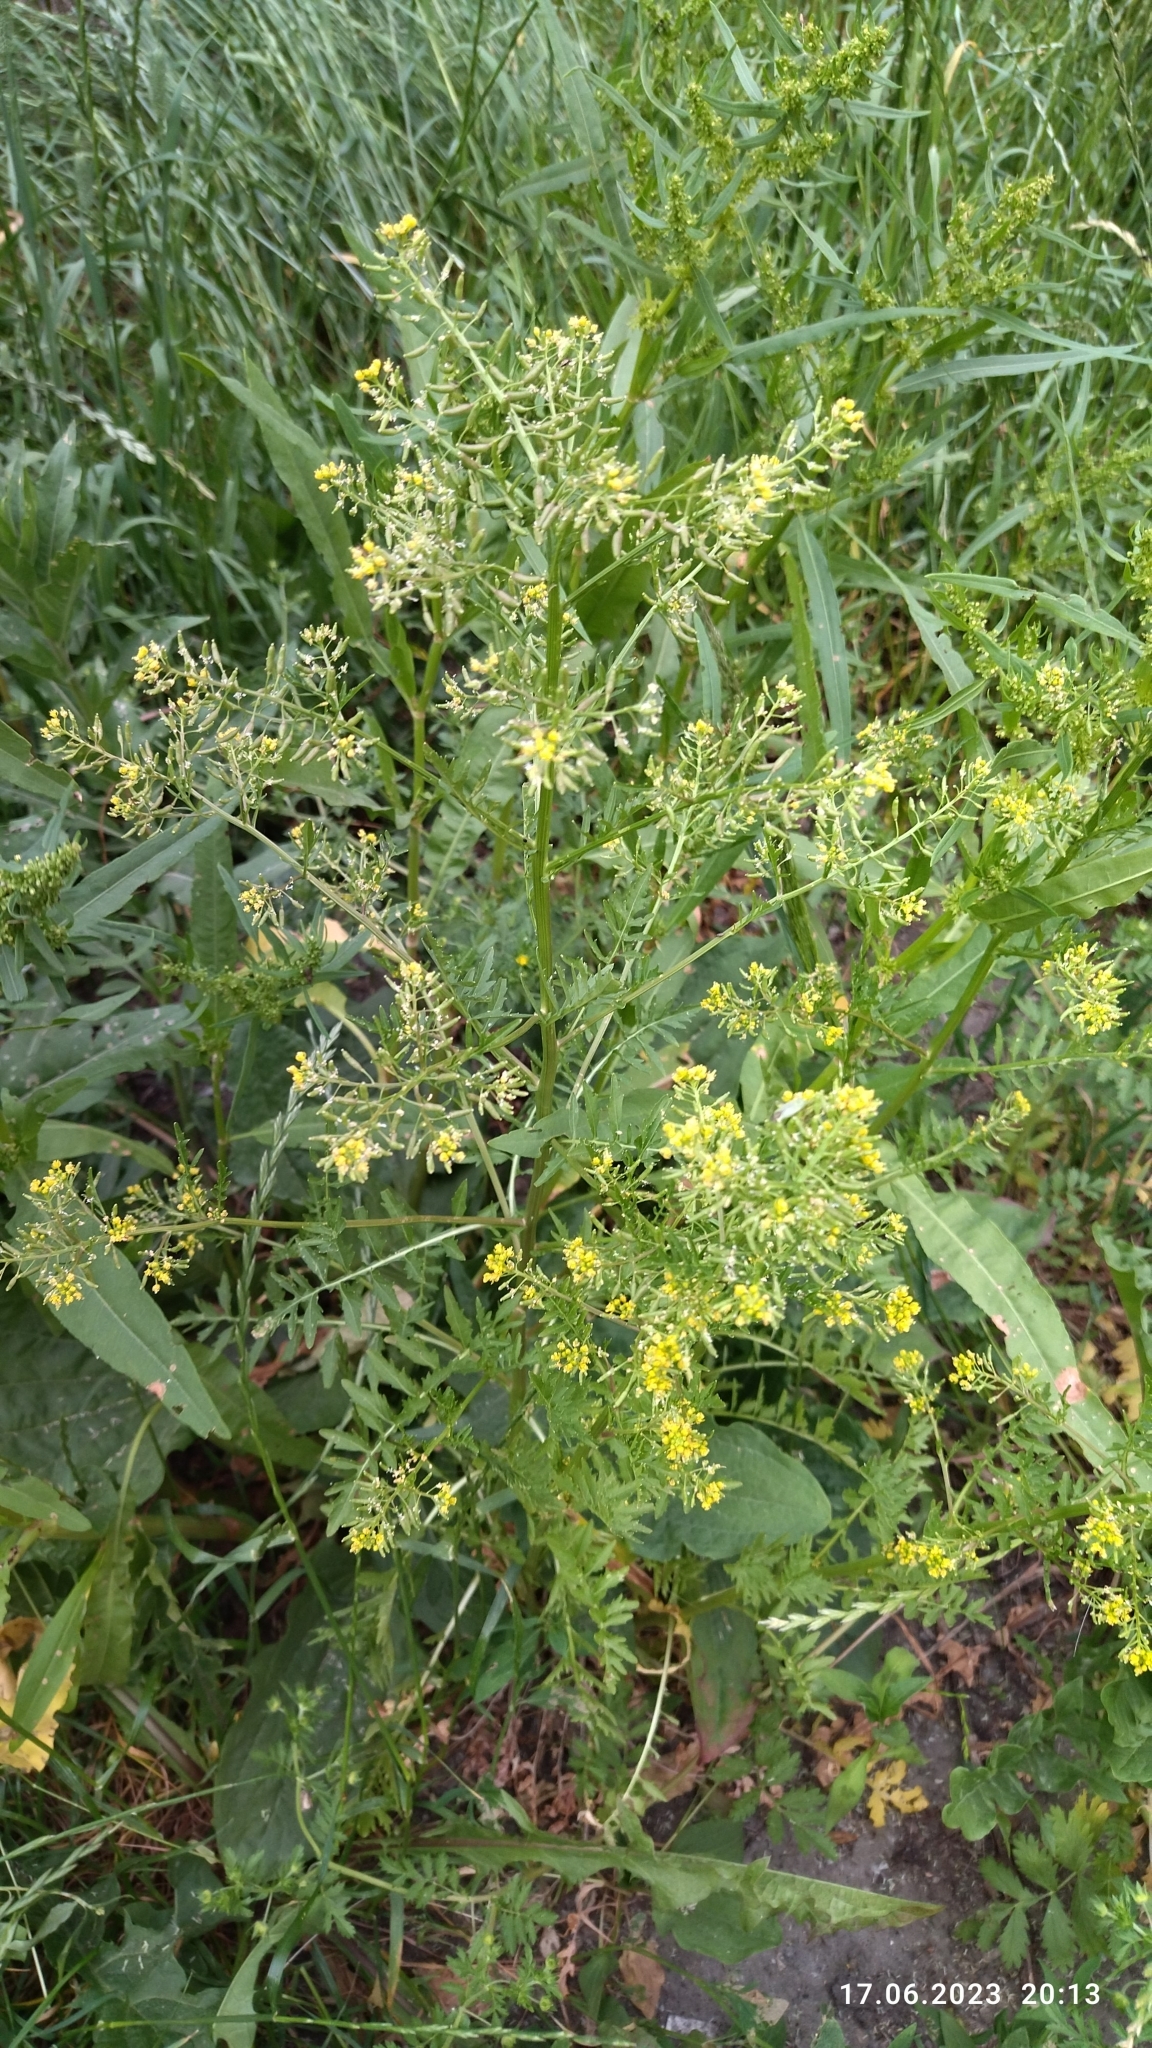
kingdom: Plantae
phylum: Tracheophyta
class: Magnoliopsida
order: Brassicales
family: Brassicaceae
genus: Rorippa
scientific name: Rorippa palustris
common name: Marsh yellow-cress
